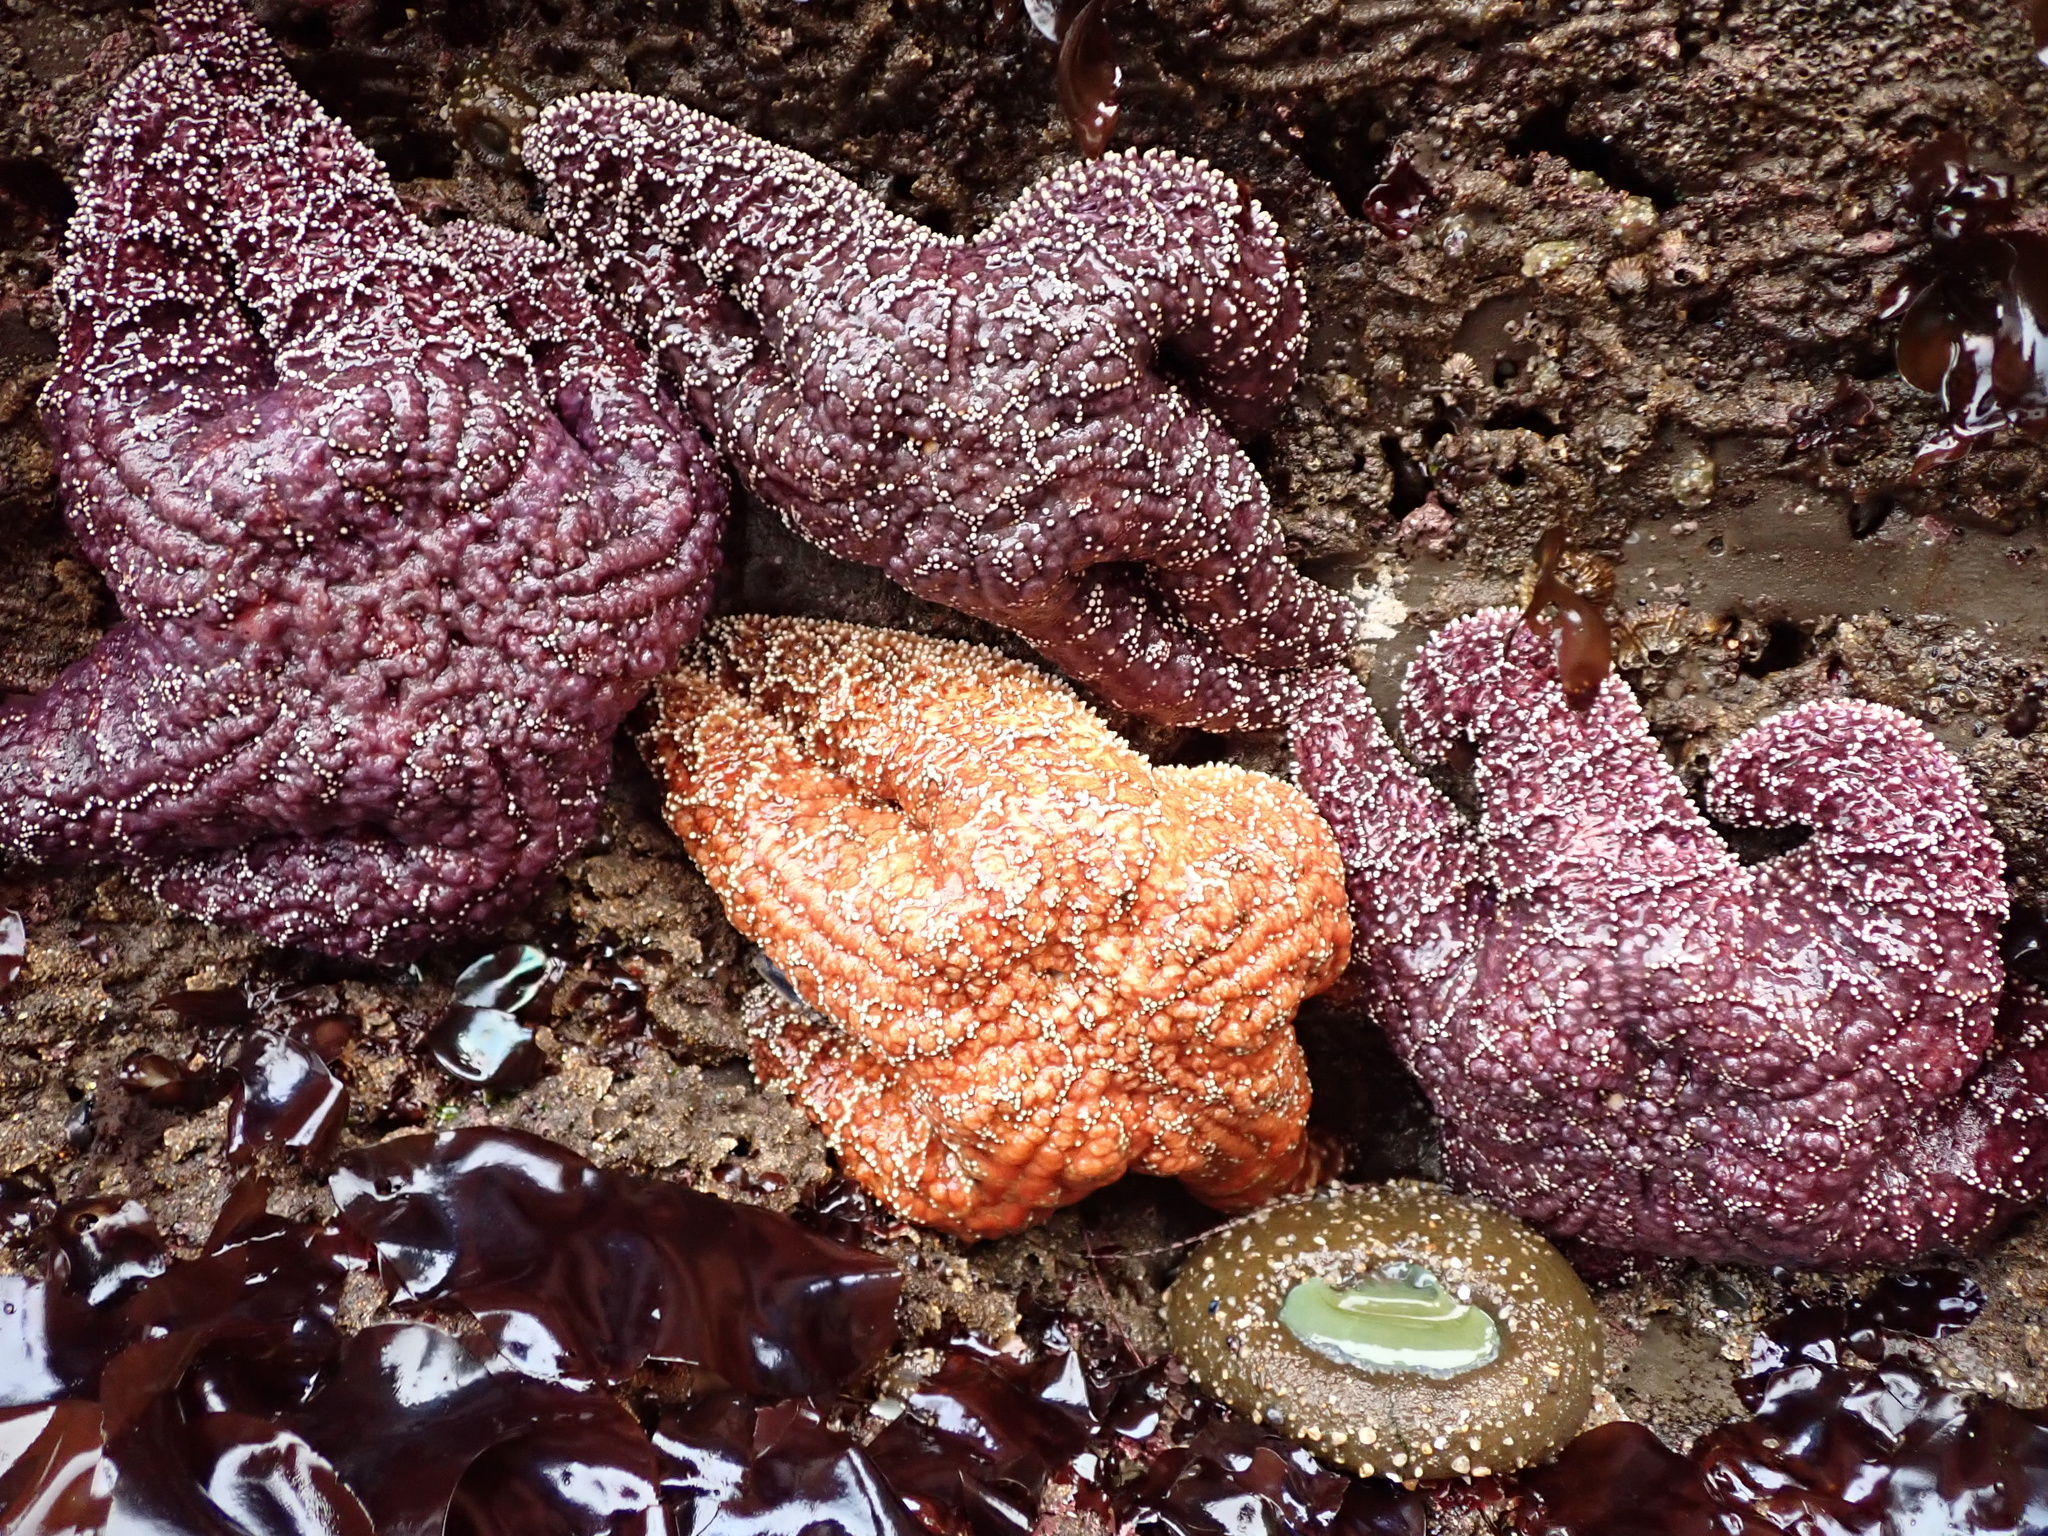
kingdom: Animalia
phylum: Echinodermata
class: Asteroidea
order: Forcipulatida
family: Asteriidae
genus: Pisaster
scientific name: Pisaster ochraceus
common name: Ochre stars
